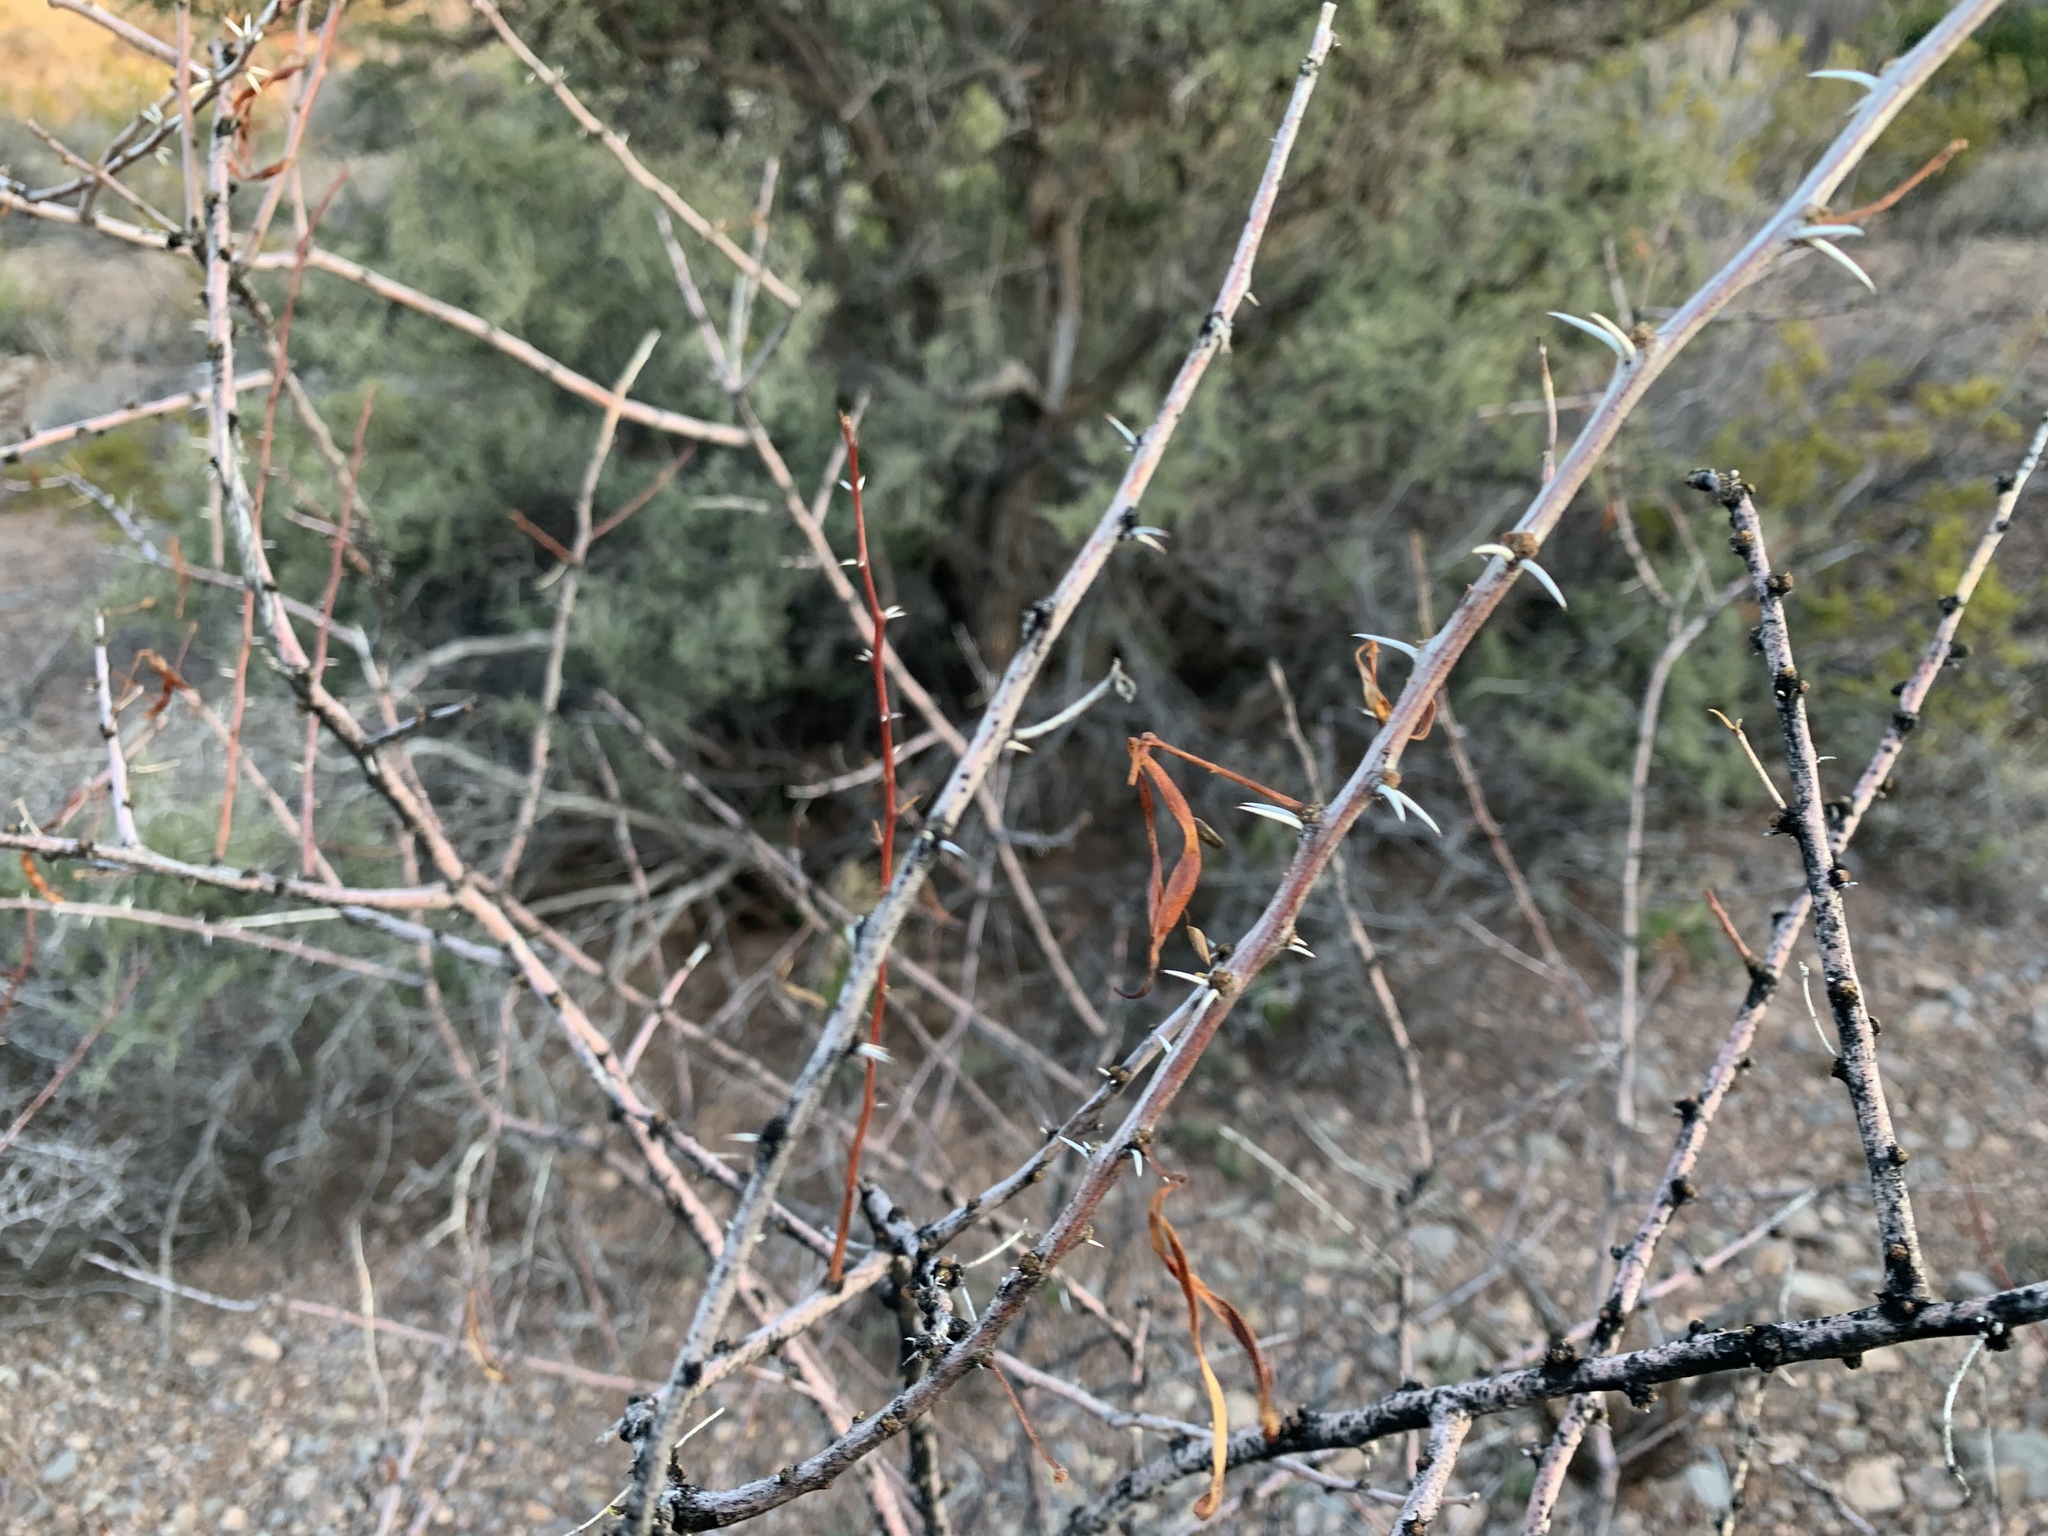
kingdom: Plantae
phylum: Tracheophyta
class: Magnoliopsida
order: Fabales
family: Fabaceae
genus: Vachellia
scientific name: Vachellia constricta
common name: Mescat acacia
